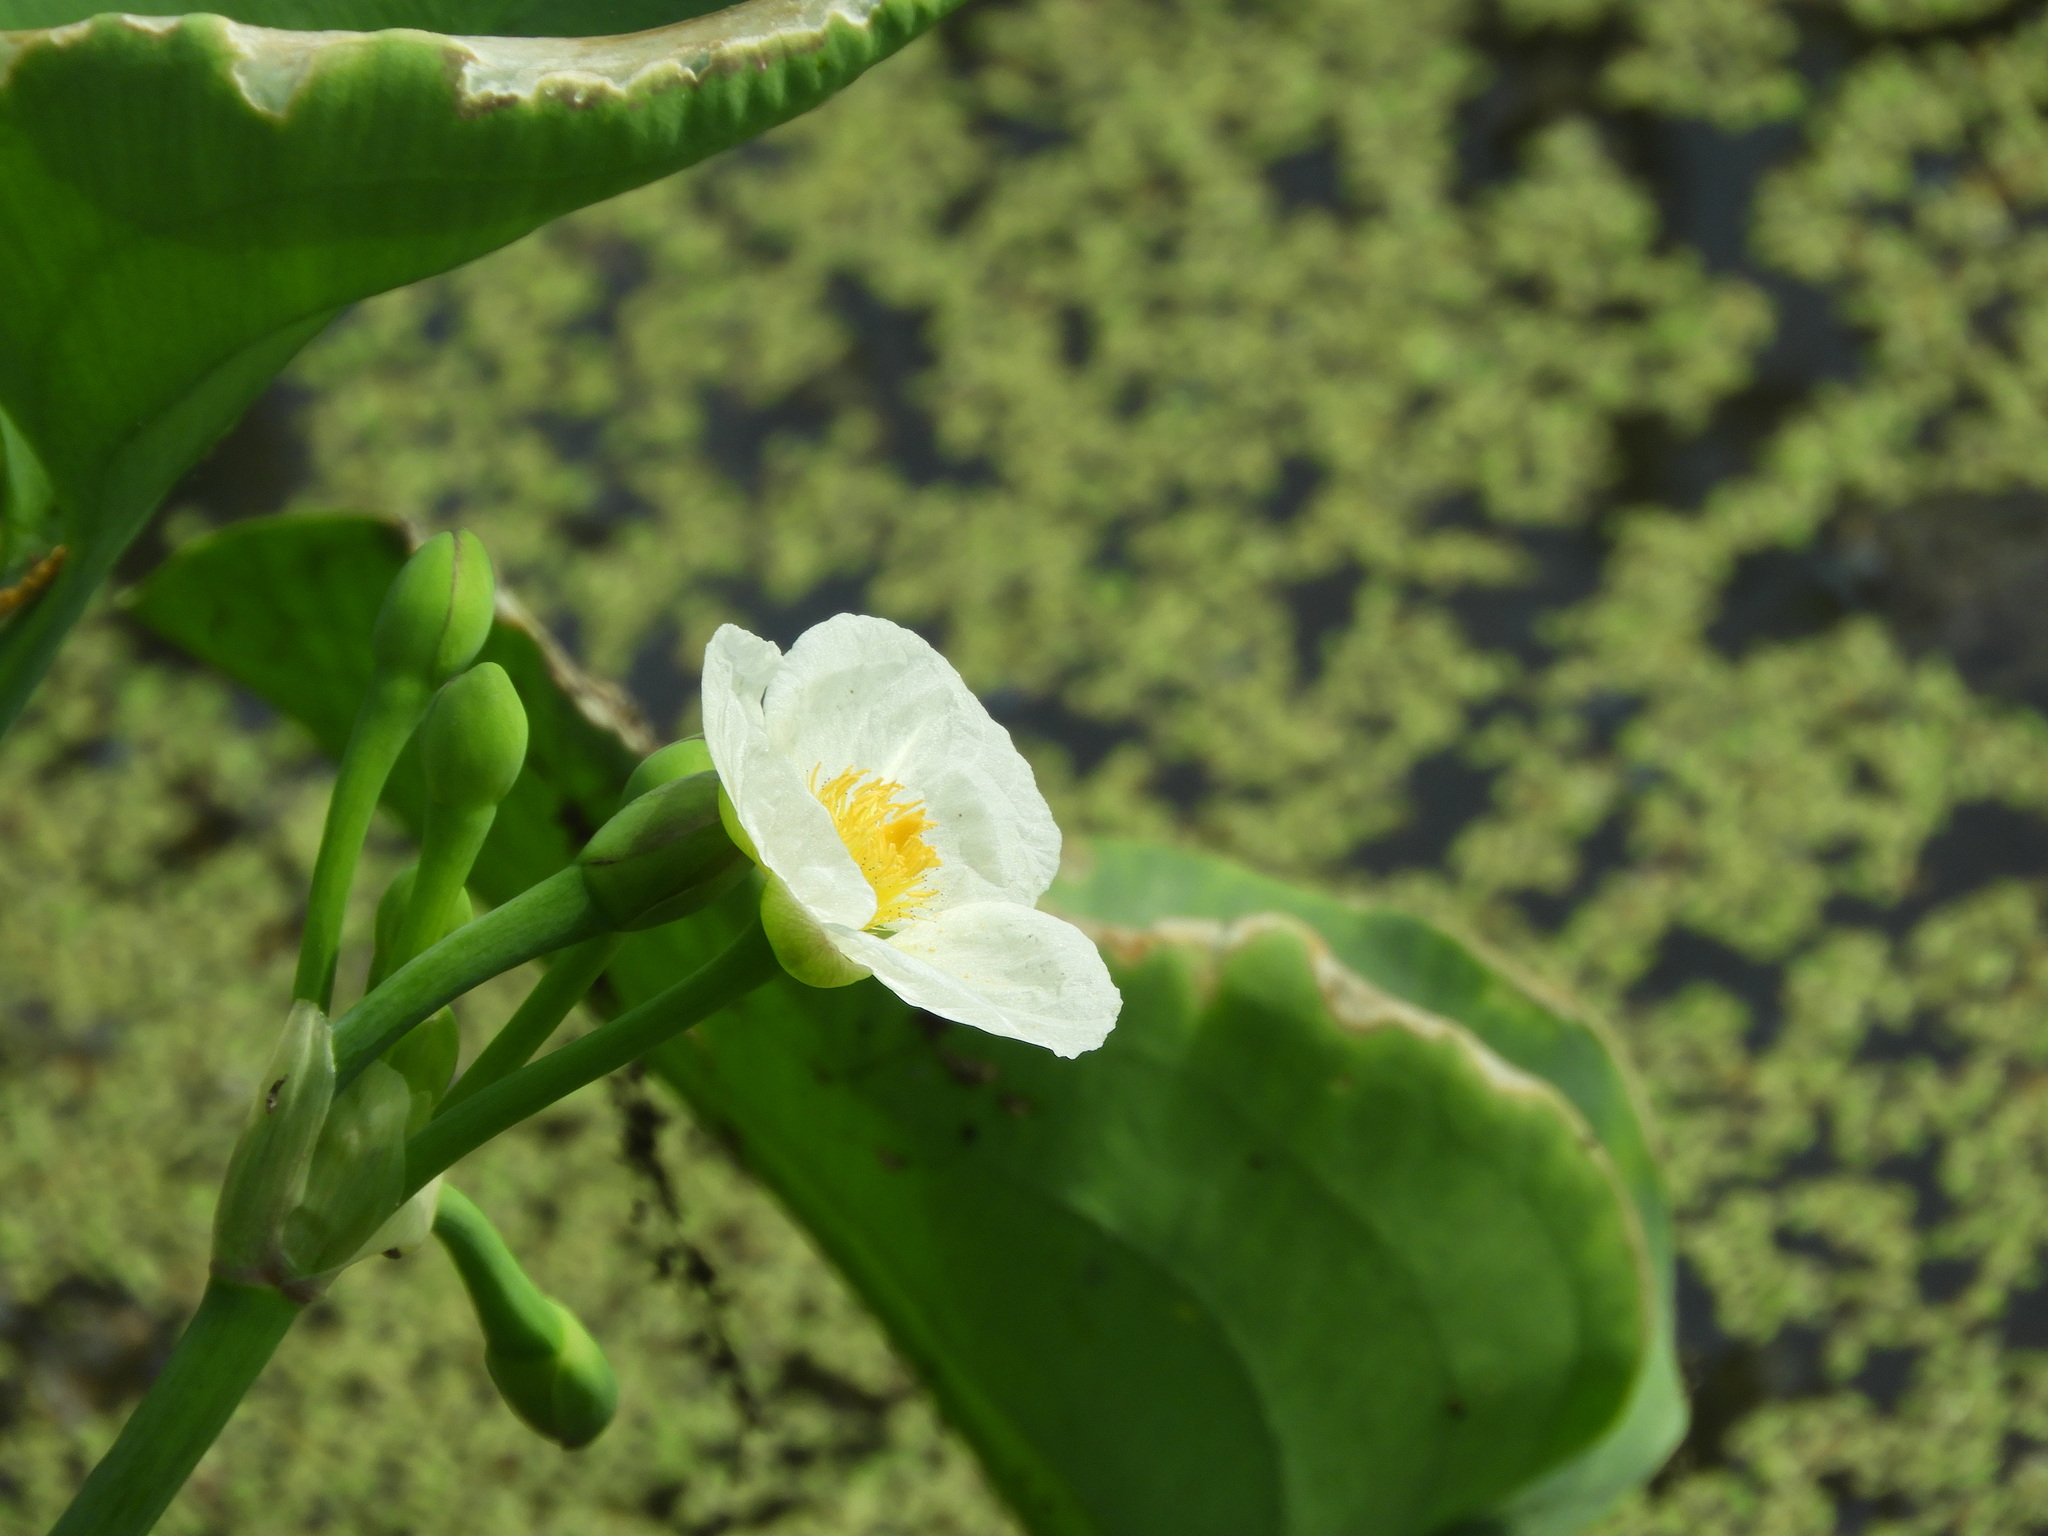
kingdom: Plantae
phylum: Tracheophyta
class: Liliopsida
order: Alismatales
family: Alismataceae
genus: Limnocharis
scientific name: Limnocharis flava
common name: Sawah-flower-rush
